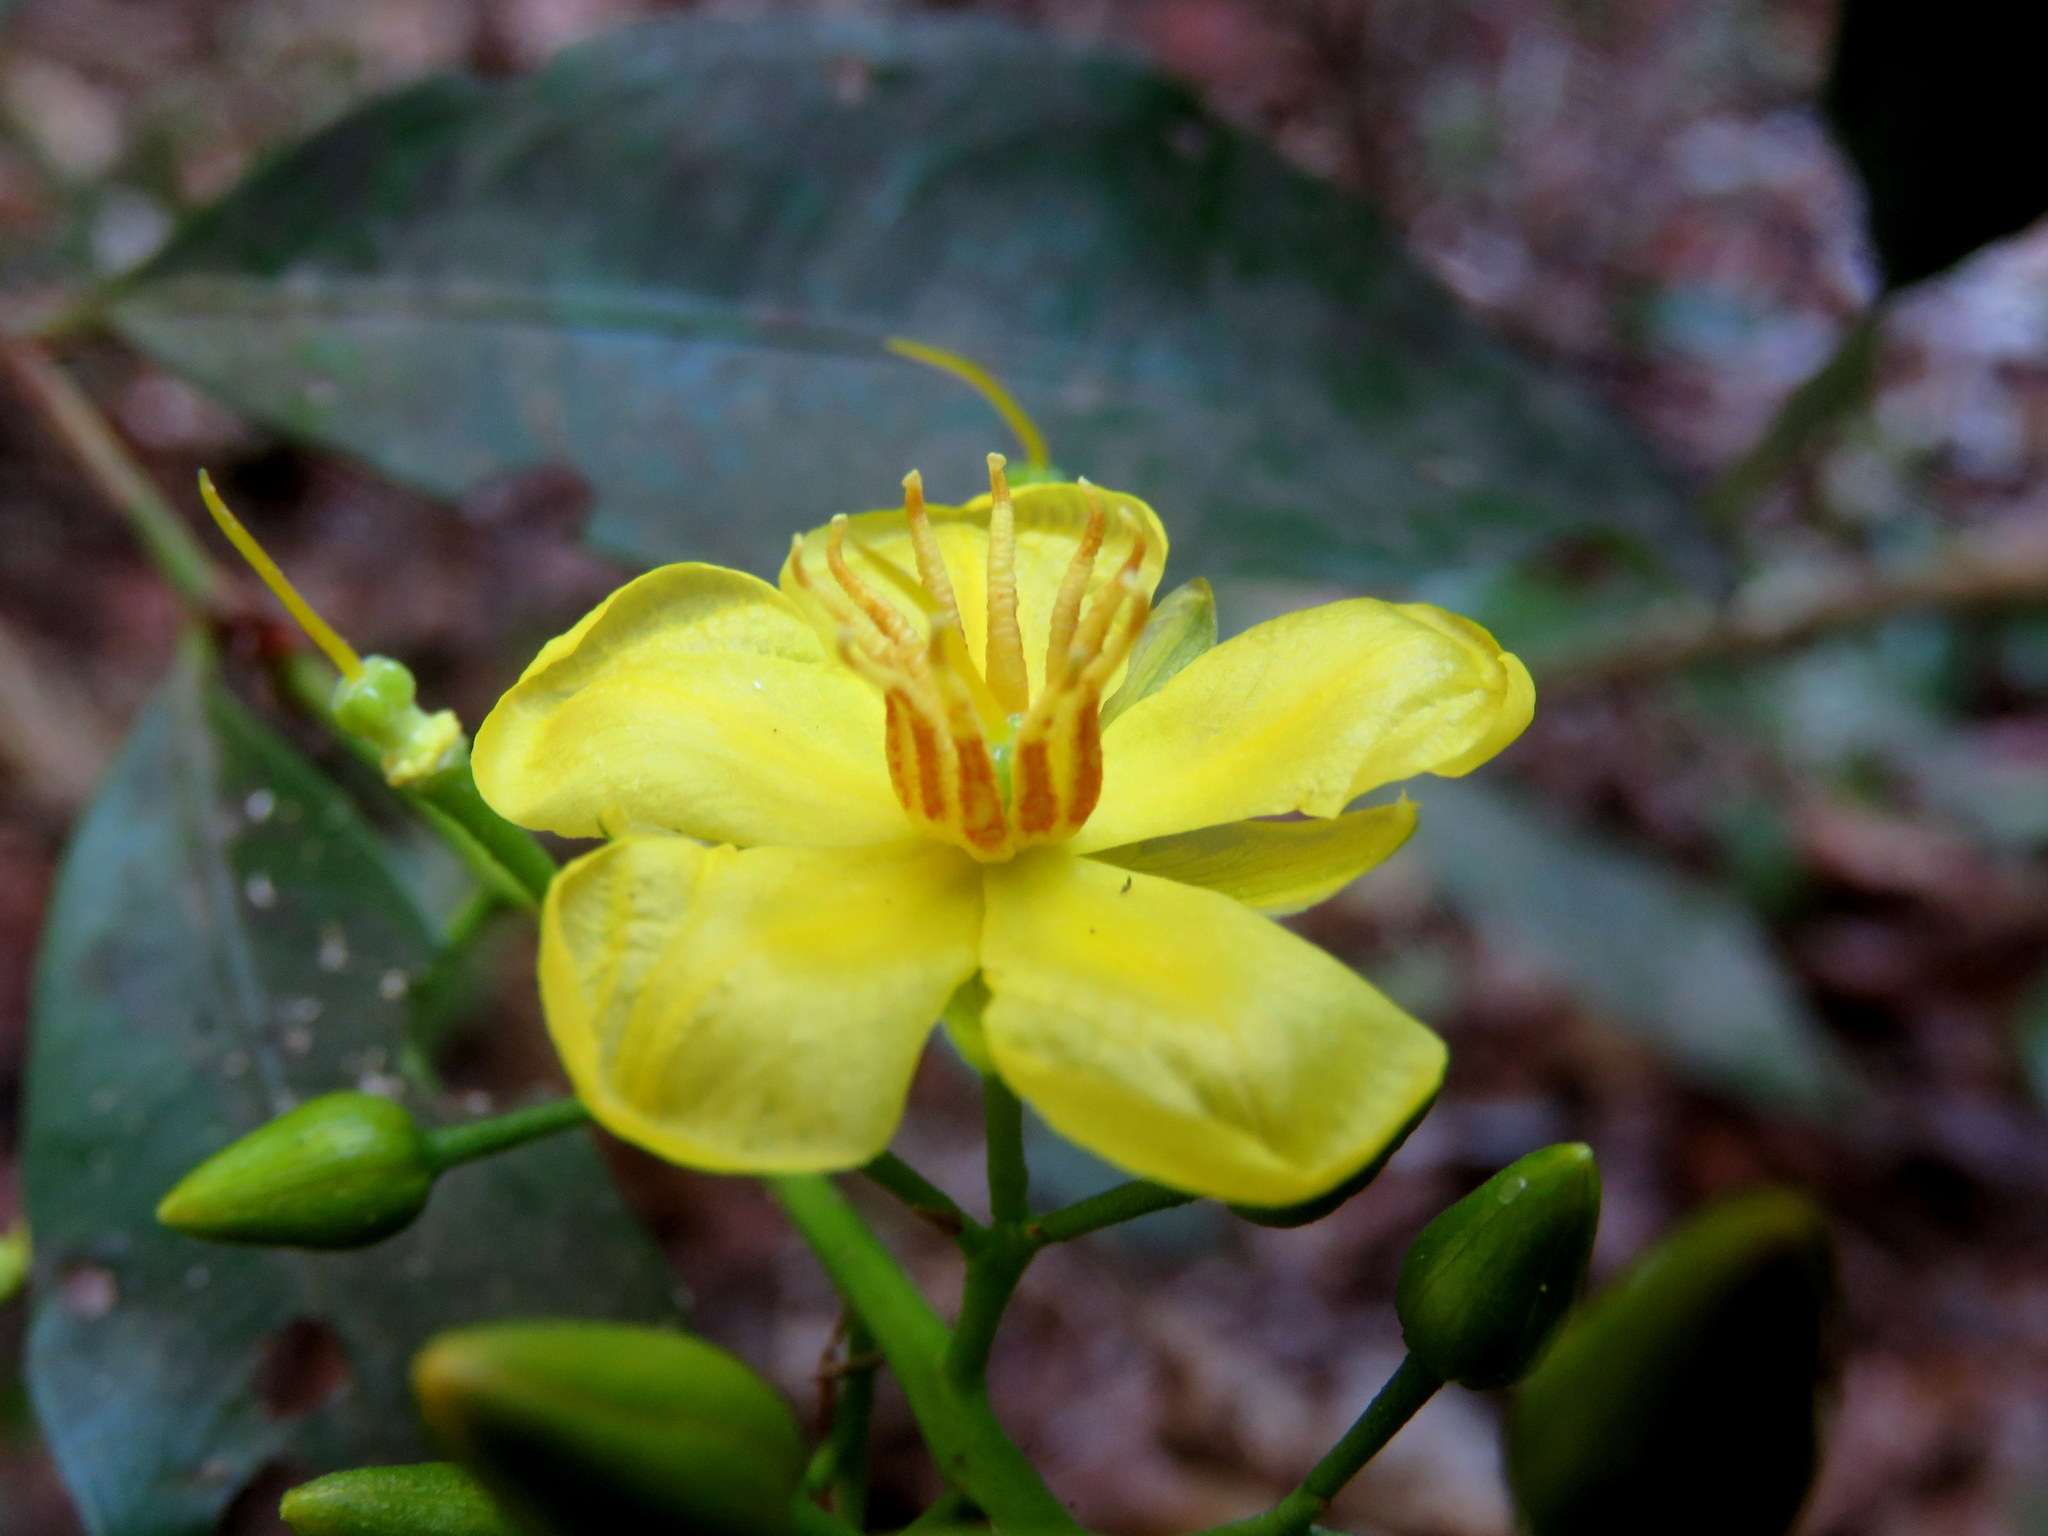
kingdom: Plantae
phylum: Tracheophyta
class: Magnoliopsida
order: Malpighiales
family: Ochnaceae
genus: Ouratea
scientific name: Ouratea lucens
